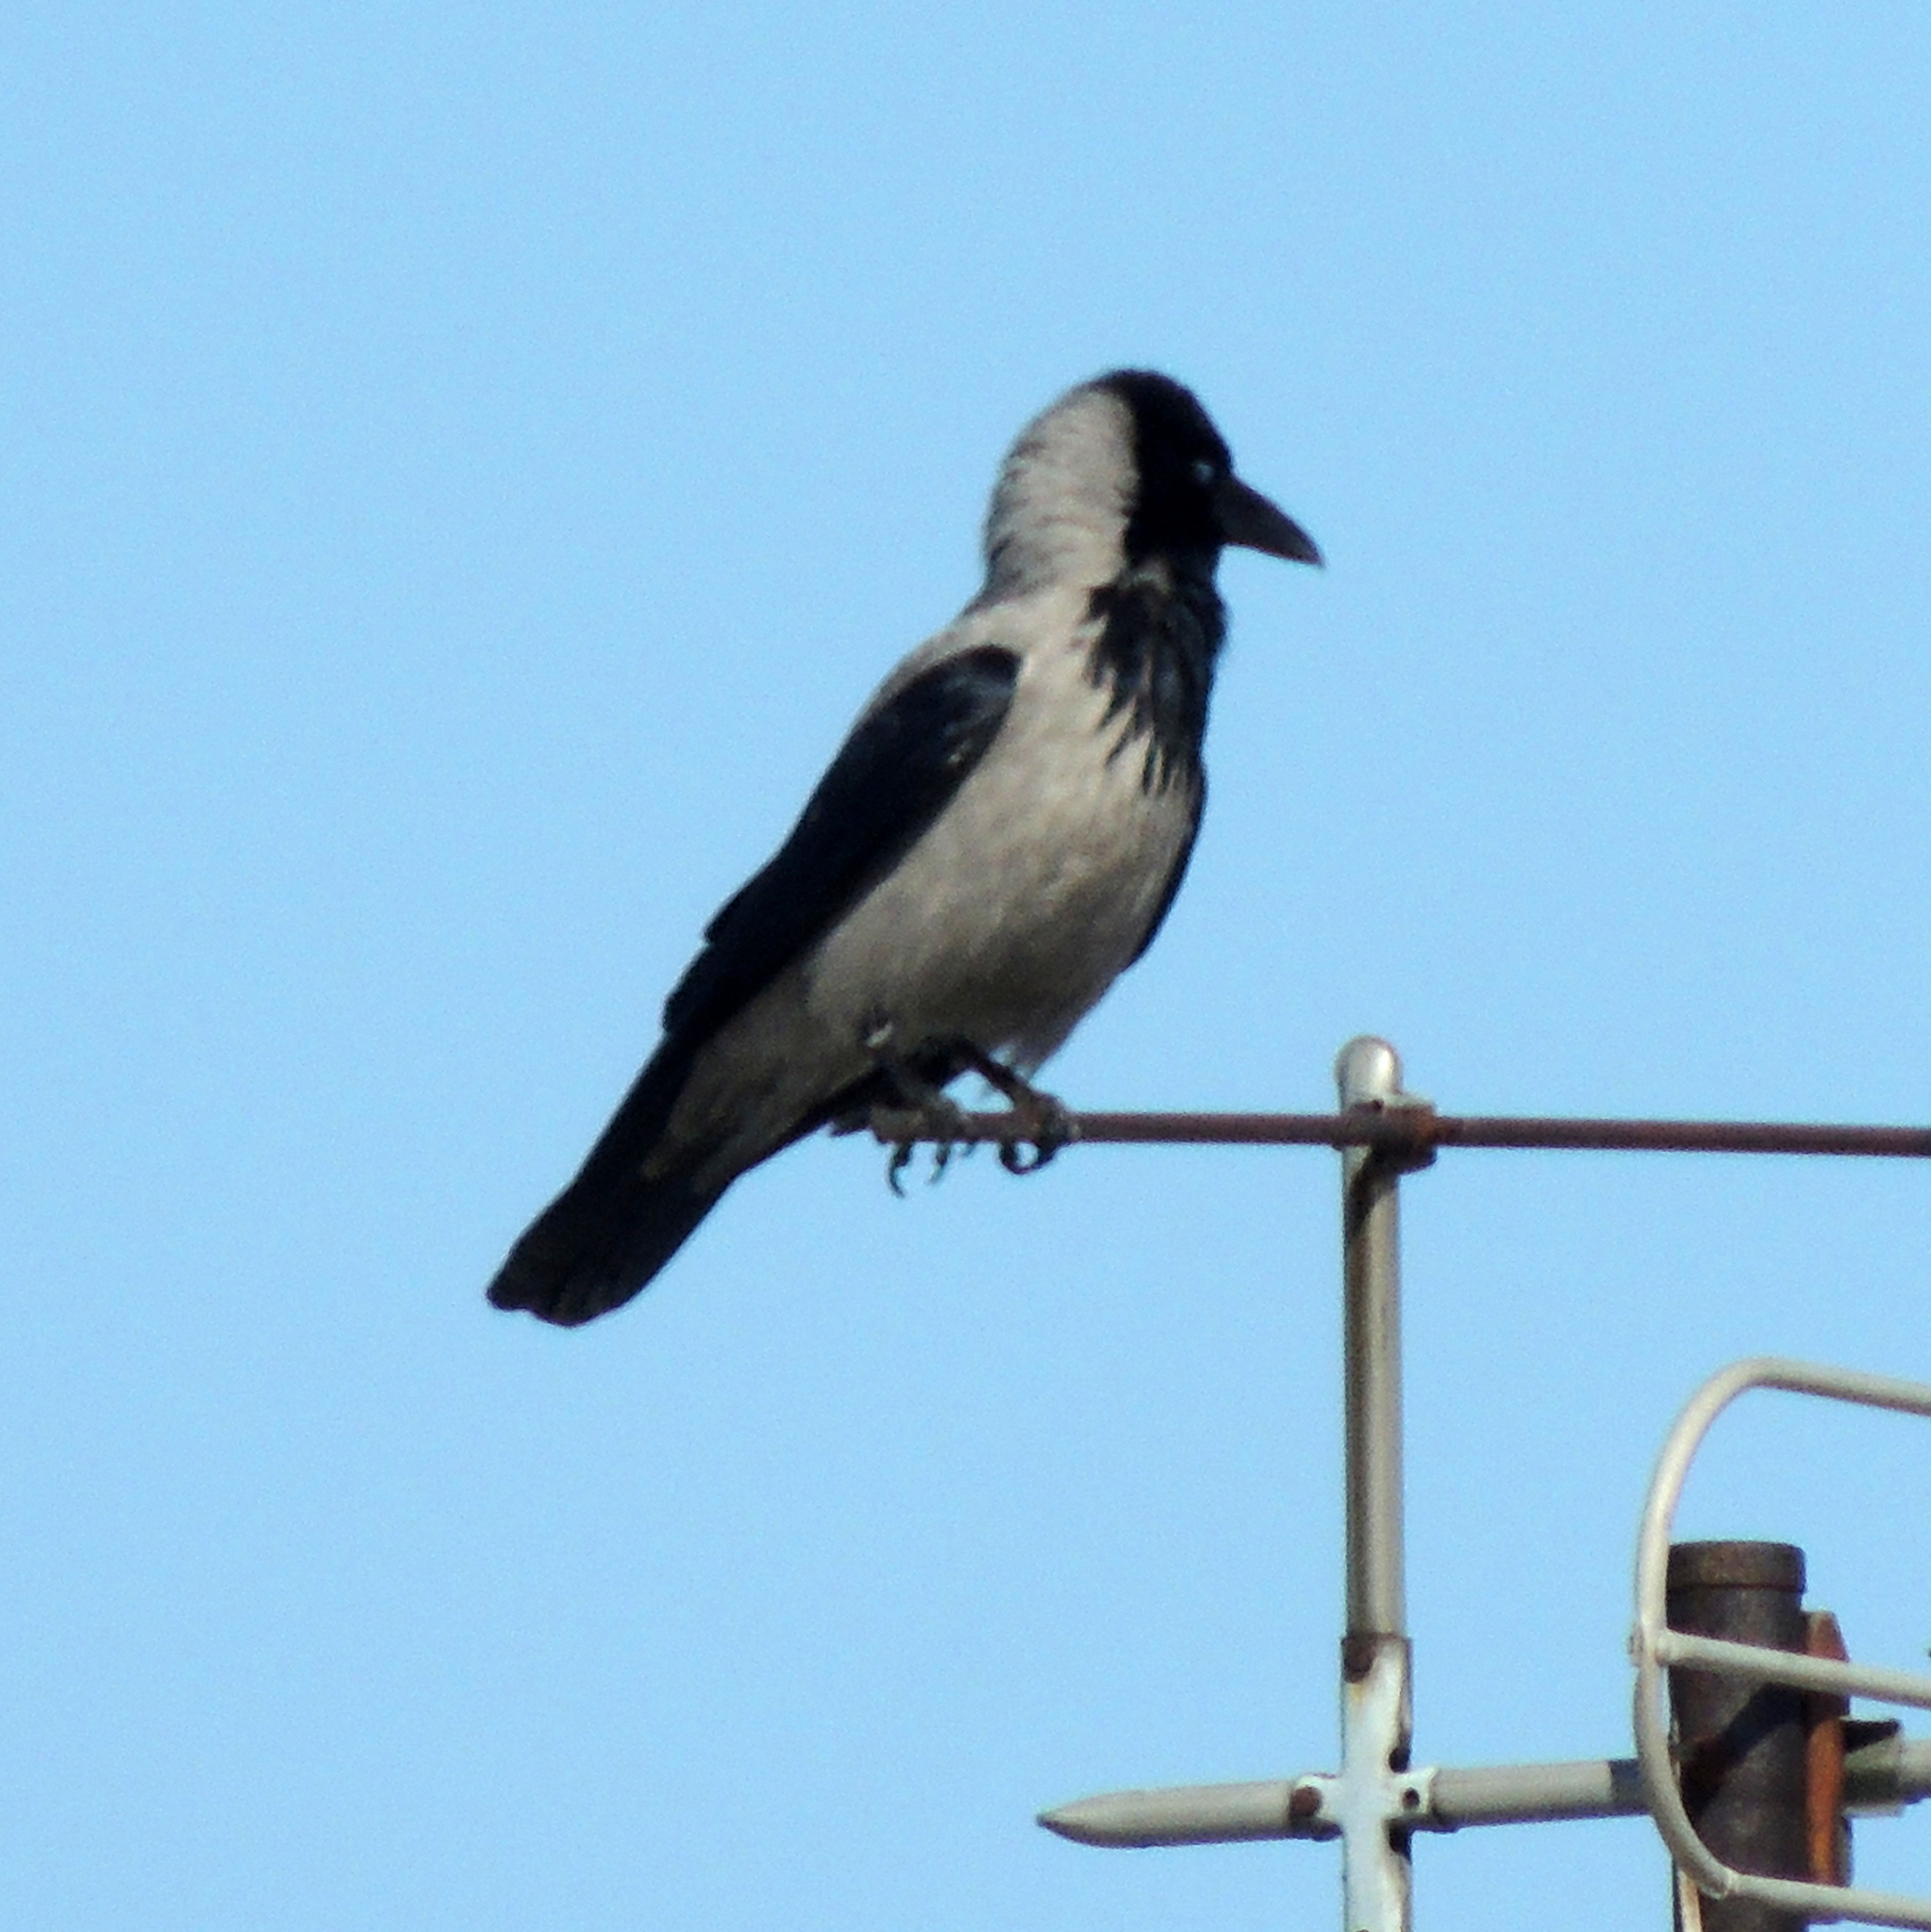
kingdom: Animalia
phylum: Chordata
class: Aves
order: Passeriformes
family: Corvidae
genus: Corvus
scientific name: Corvus cornix
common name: Hooded crow
